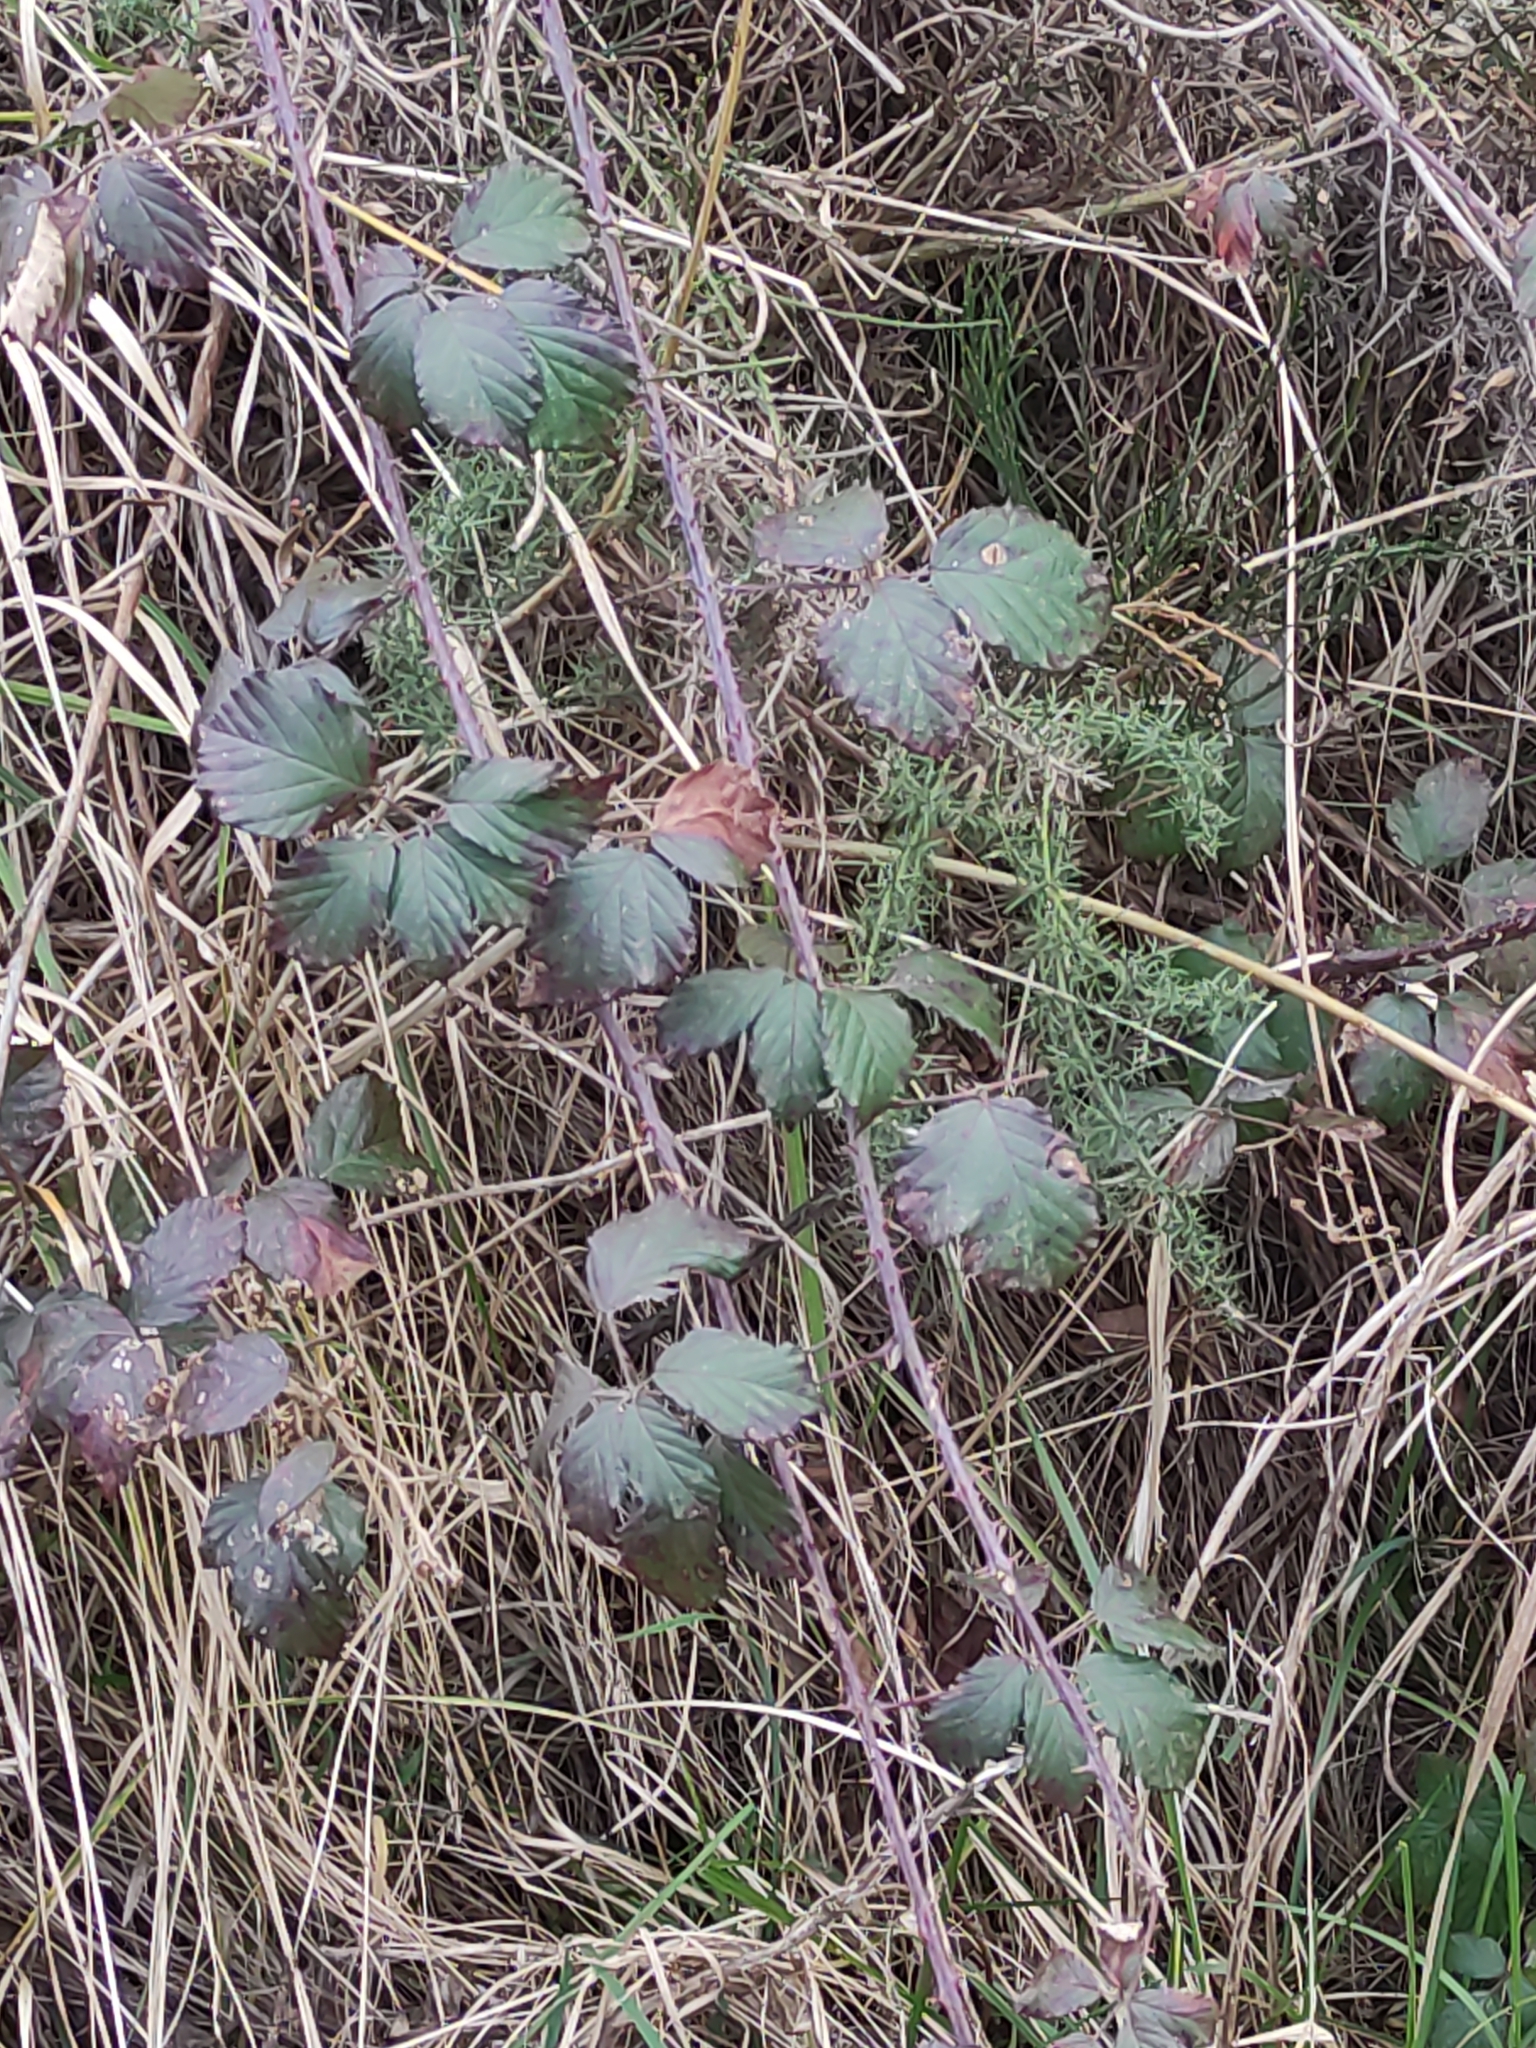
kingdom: Plantae
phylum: Tracheophyta
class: Magnoliopsida
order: Rosales
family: Rosaceae
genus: Rubus
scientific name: Rubus fruticosus
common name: Blackberry, bramble
